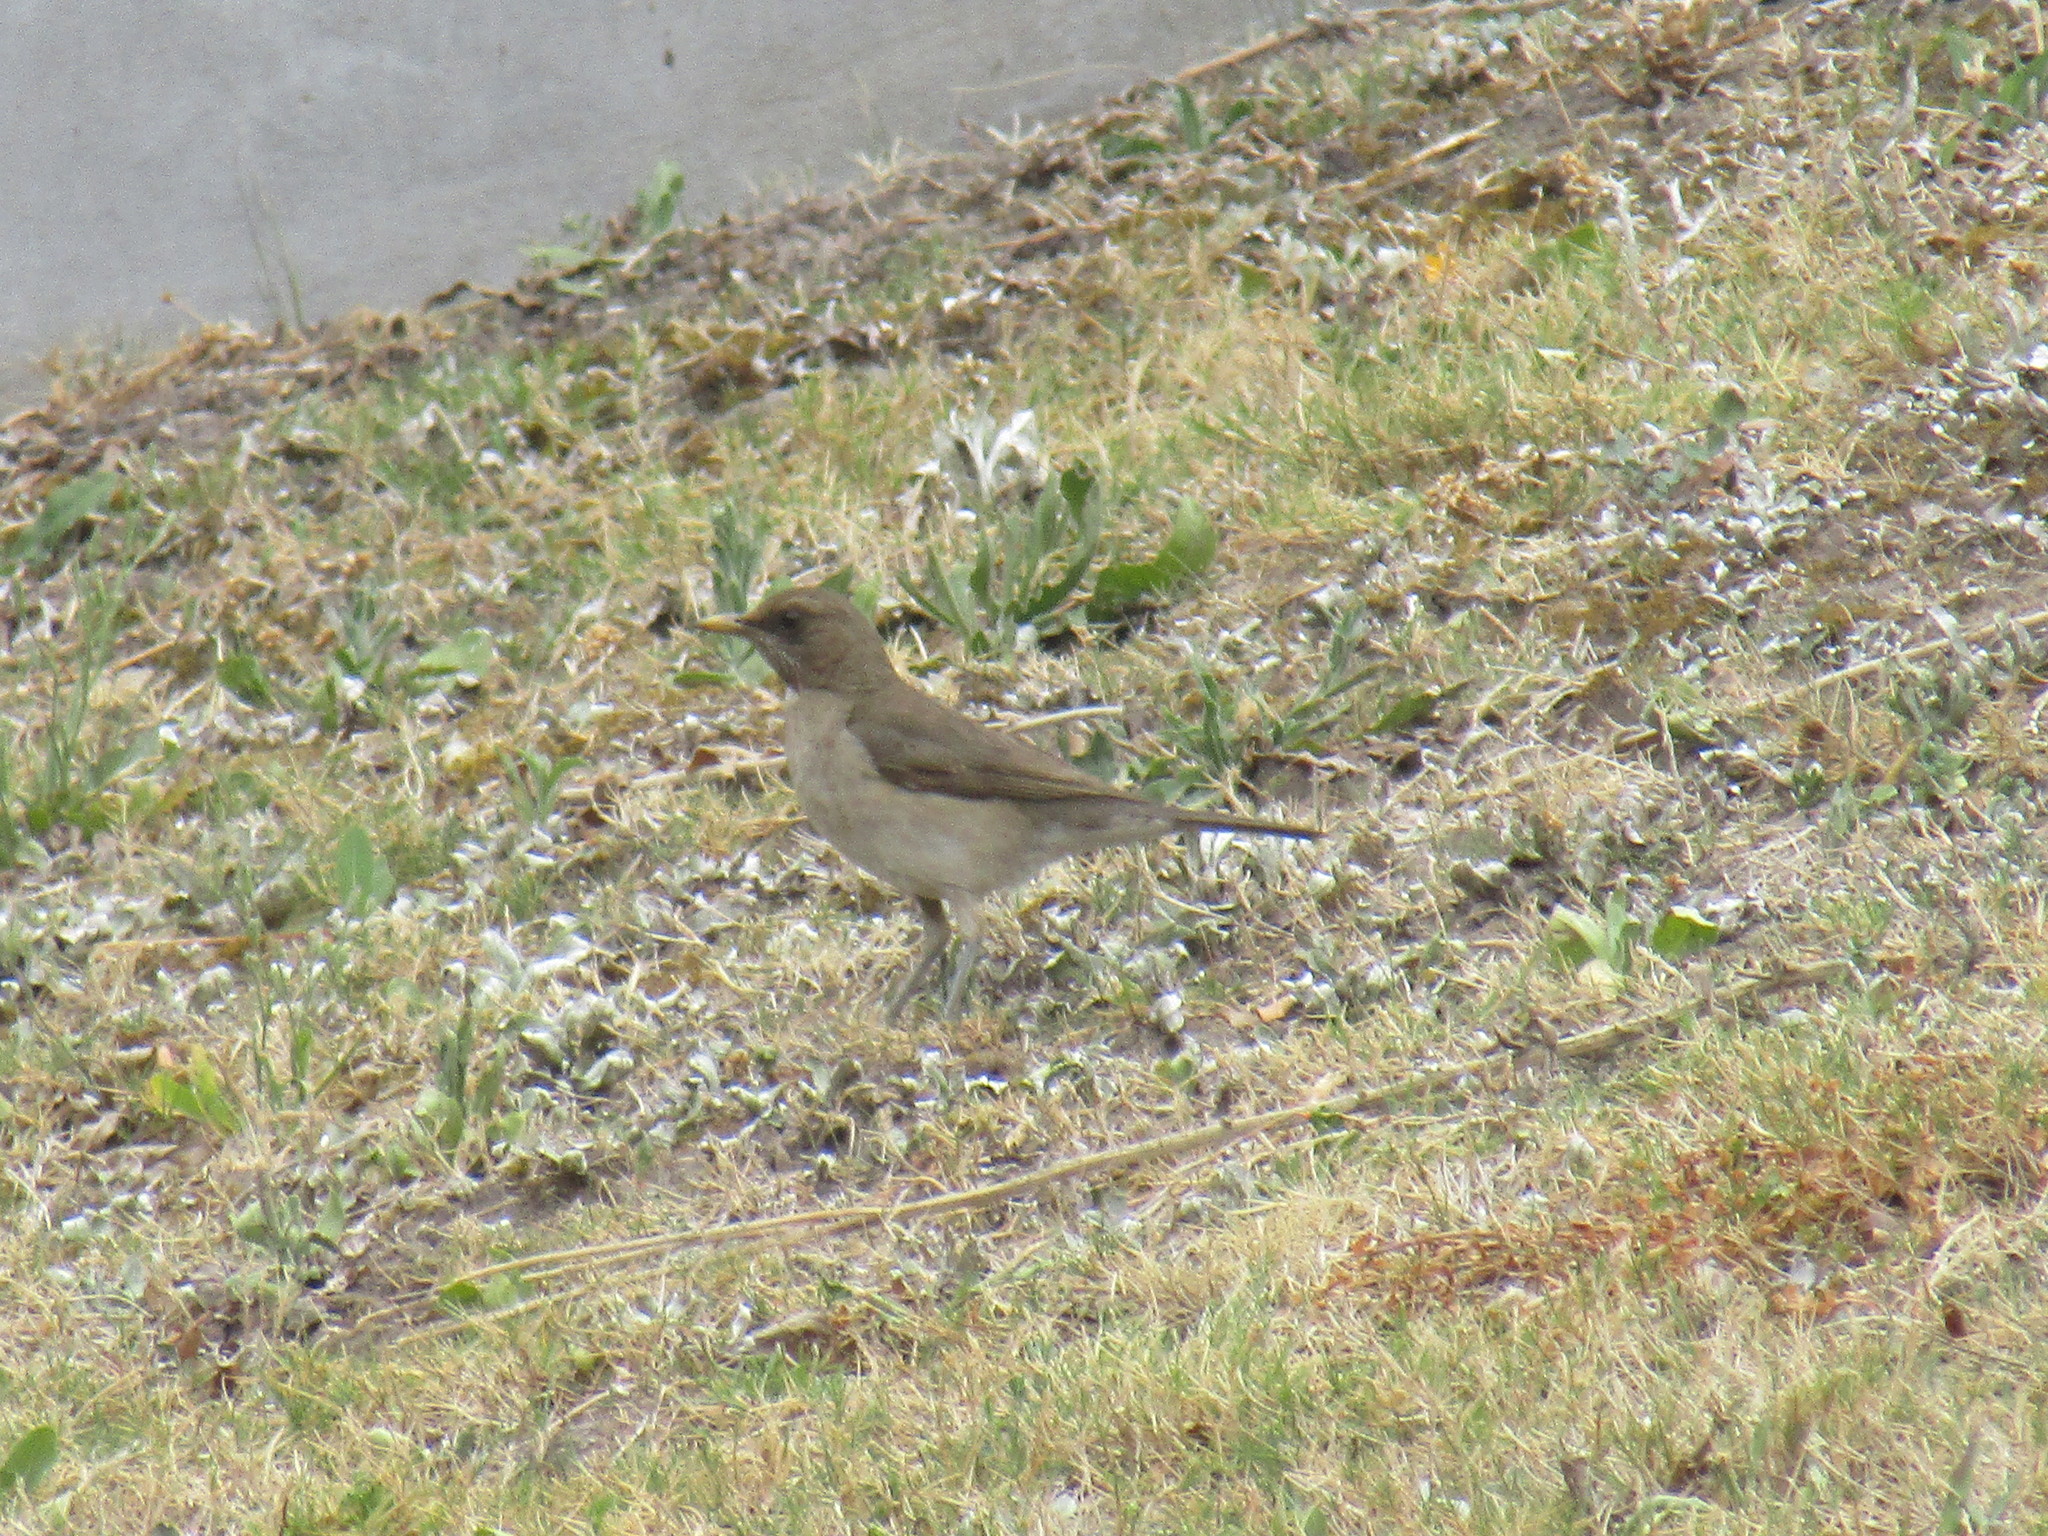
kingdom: Animalia
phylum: Chordata
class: Aves
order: Passeriformes
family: Turdidae
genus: Turdus
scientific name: Turdus amaurochalinus
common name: Creamy-bellied thrush
